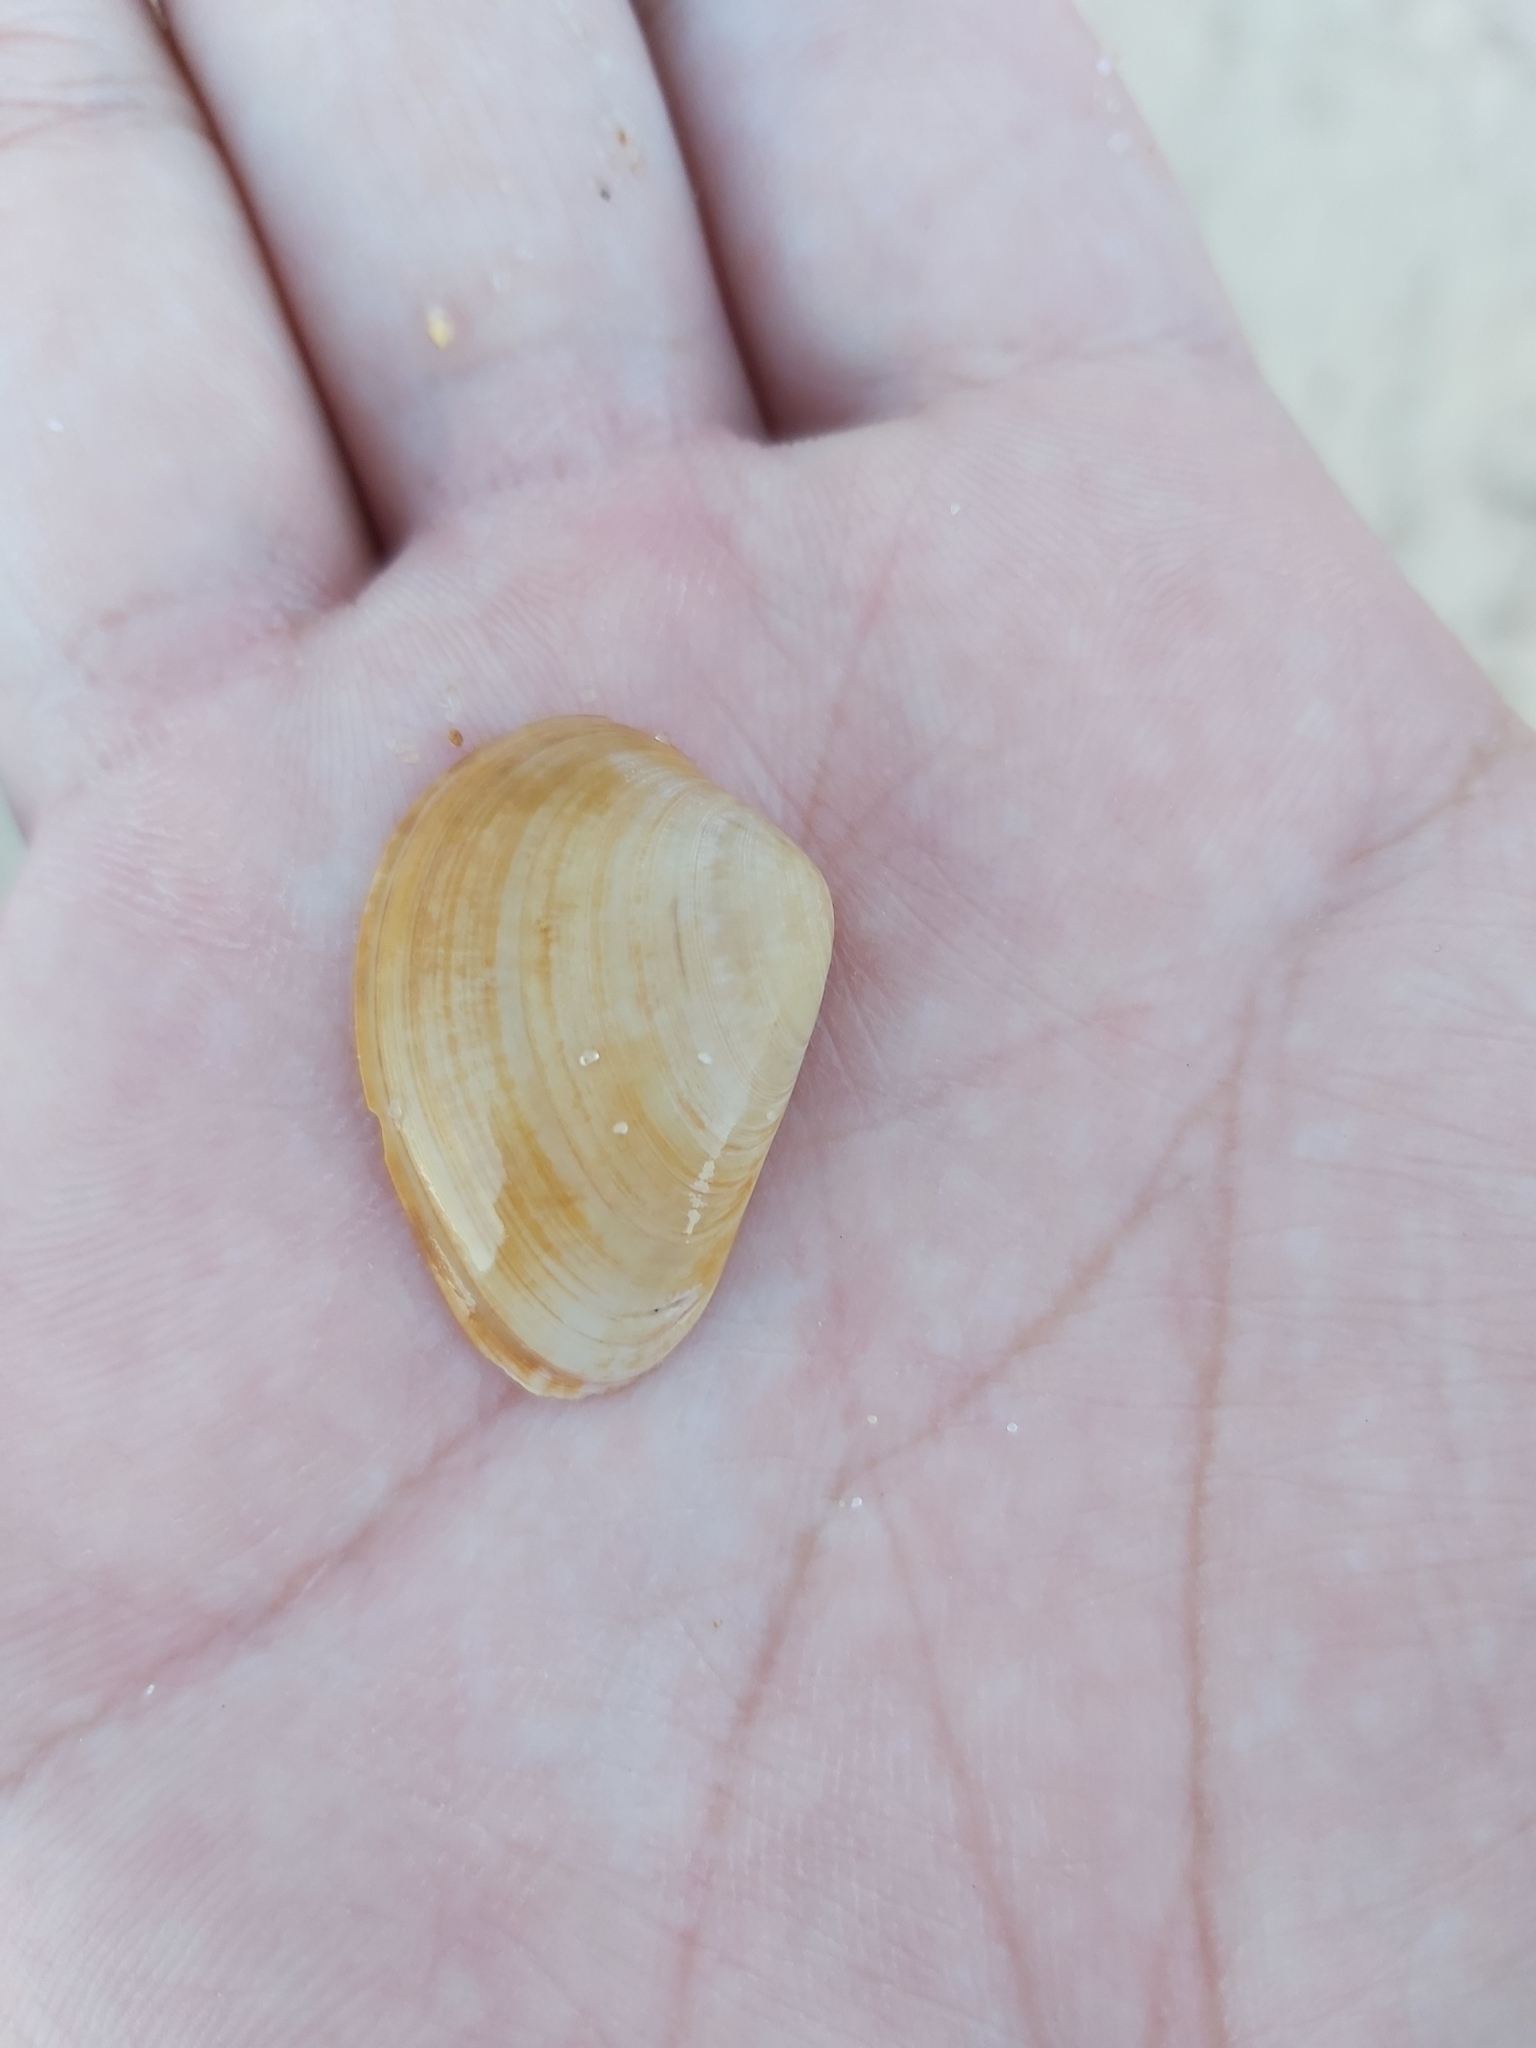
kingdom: Animalia
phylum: Mollusca
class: Bivalvia
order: Venerida
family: Veneridae
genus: Eumarcia
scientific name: Eumarcia fumigata
